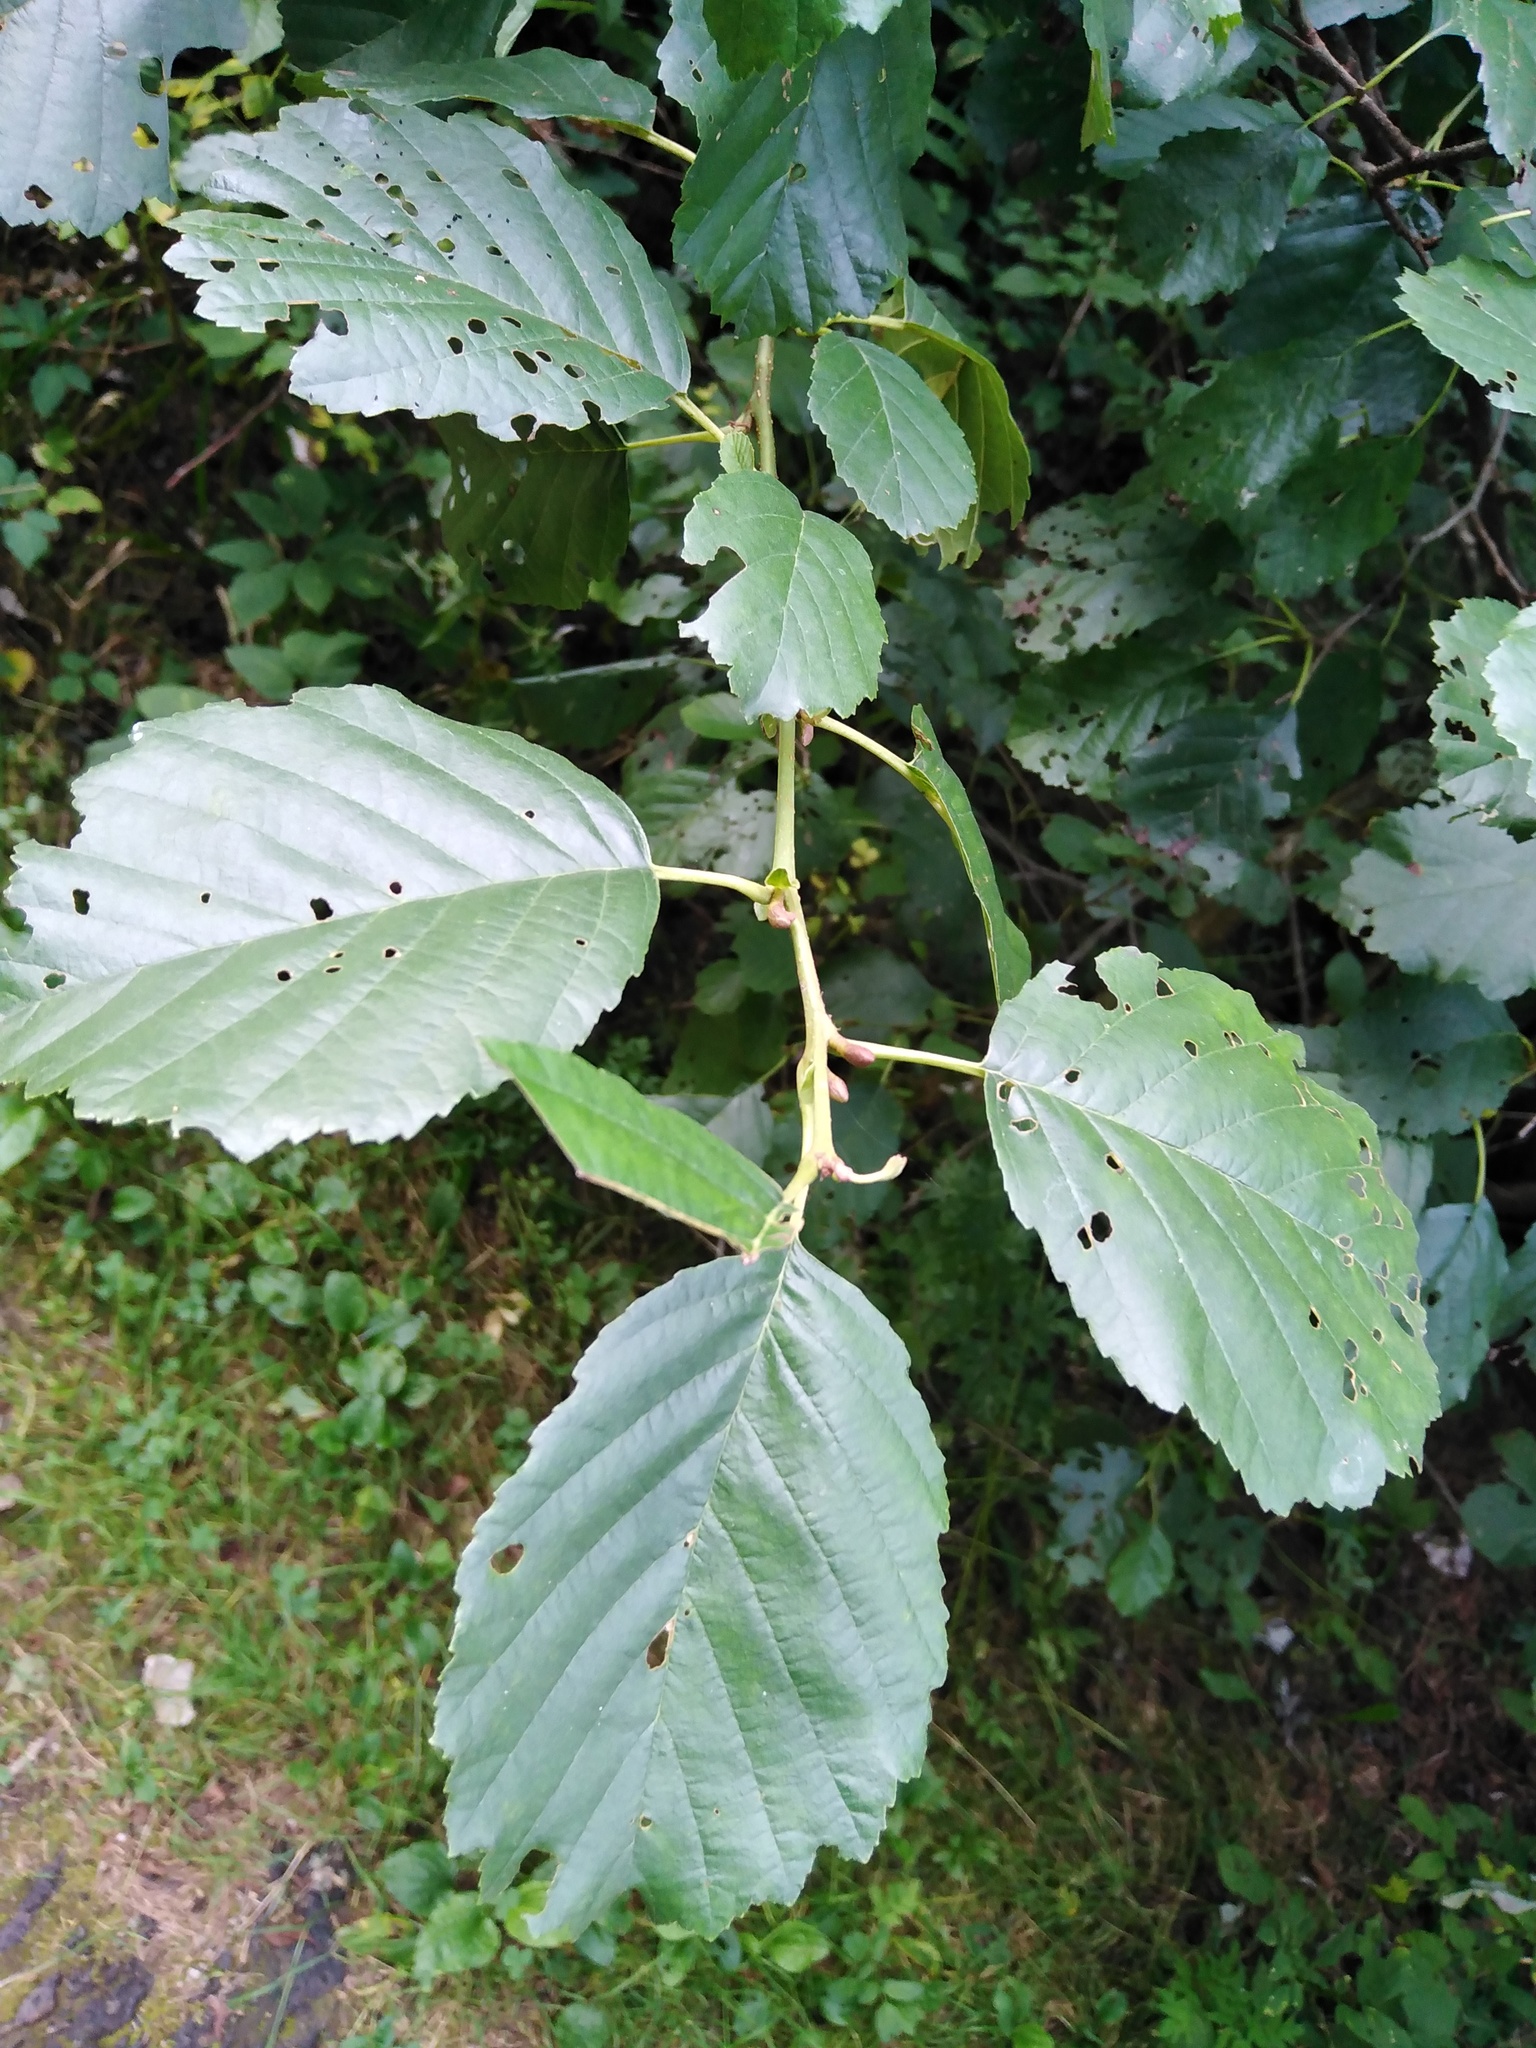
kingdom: Plantae
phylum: Tracheophyta
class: Magnoliopsida
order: Fagales
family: Betulaceae
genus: Alnus
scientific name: Alnus glutinosa
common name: Black alder
